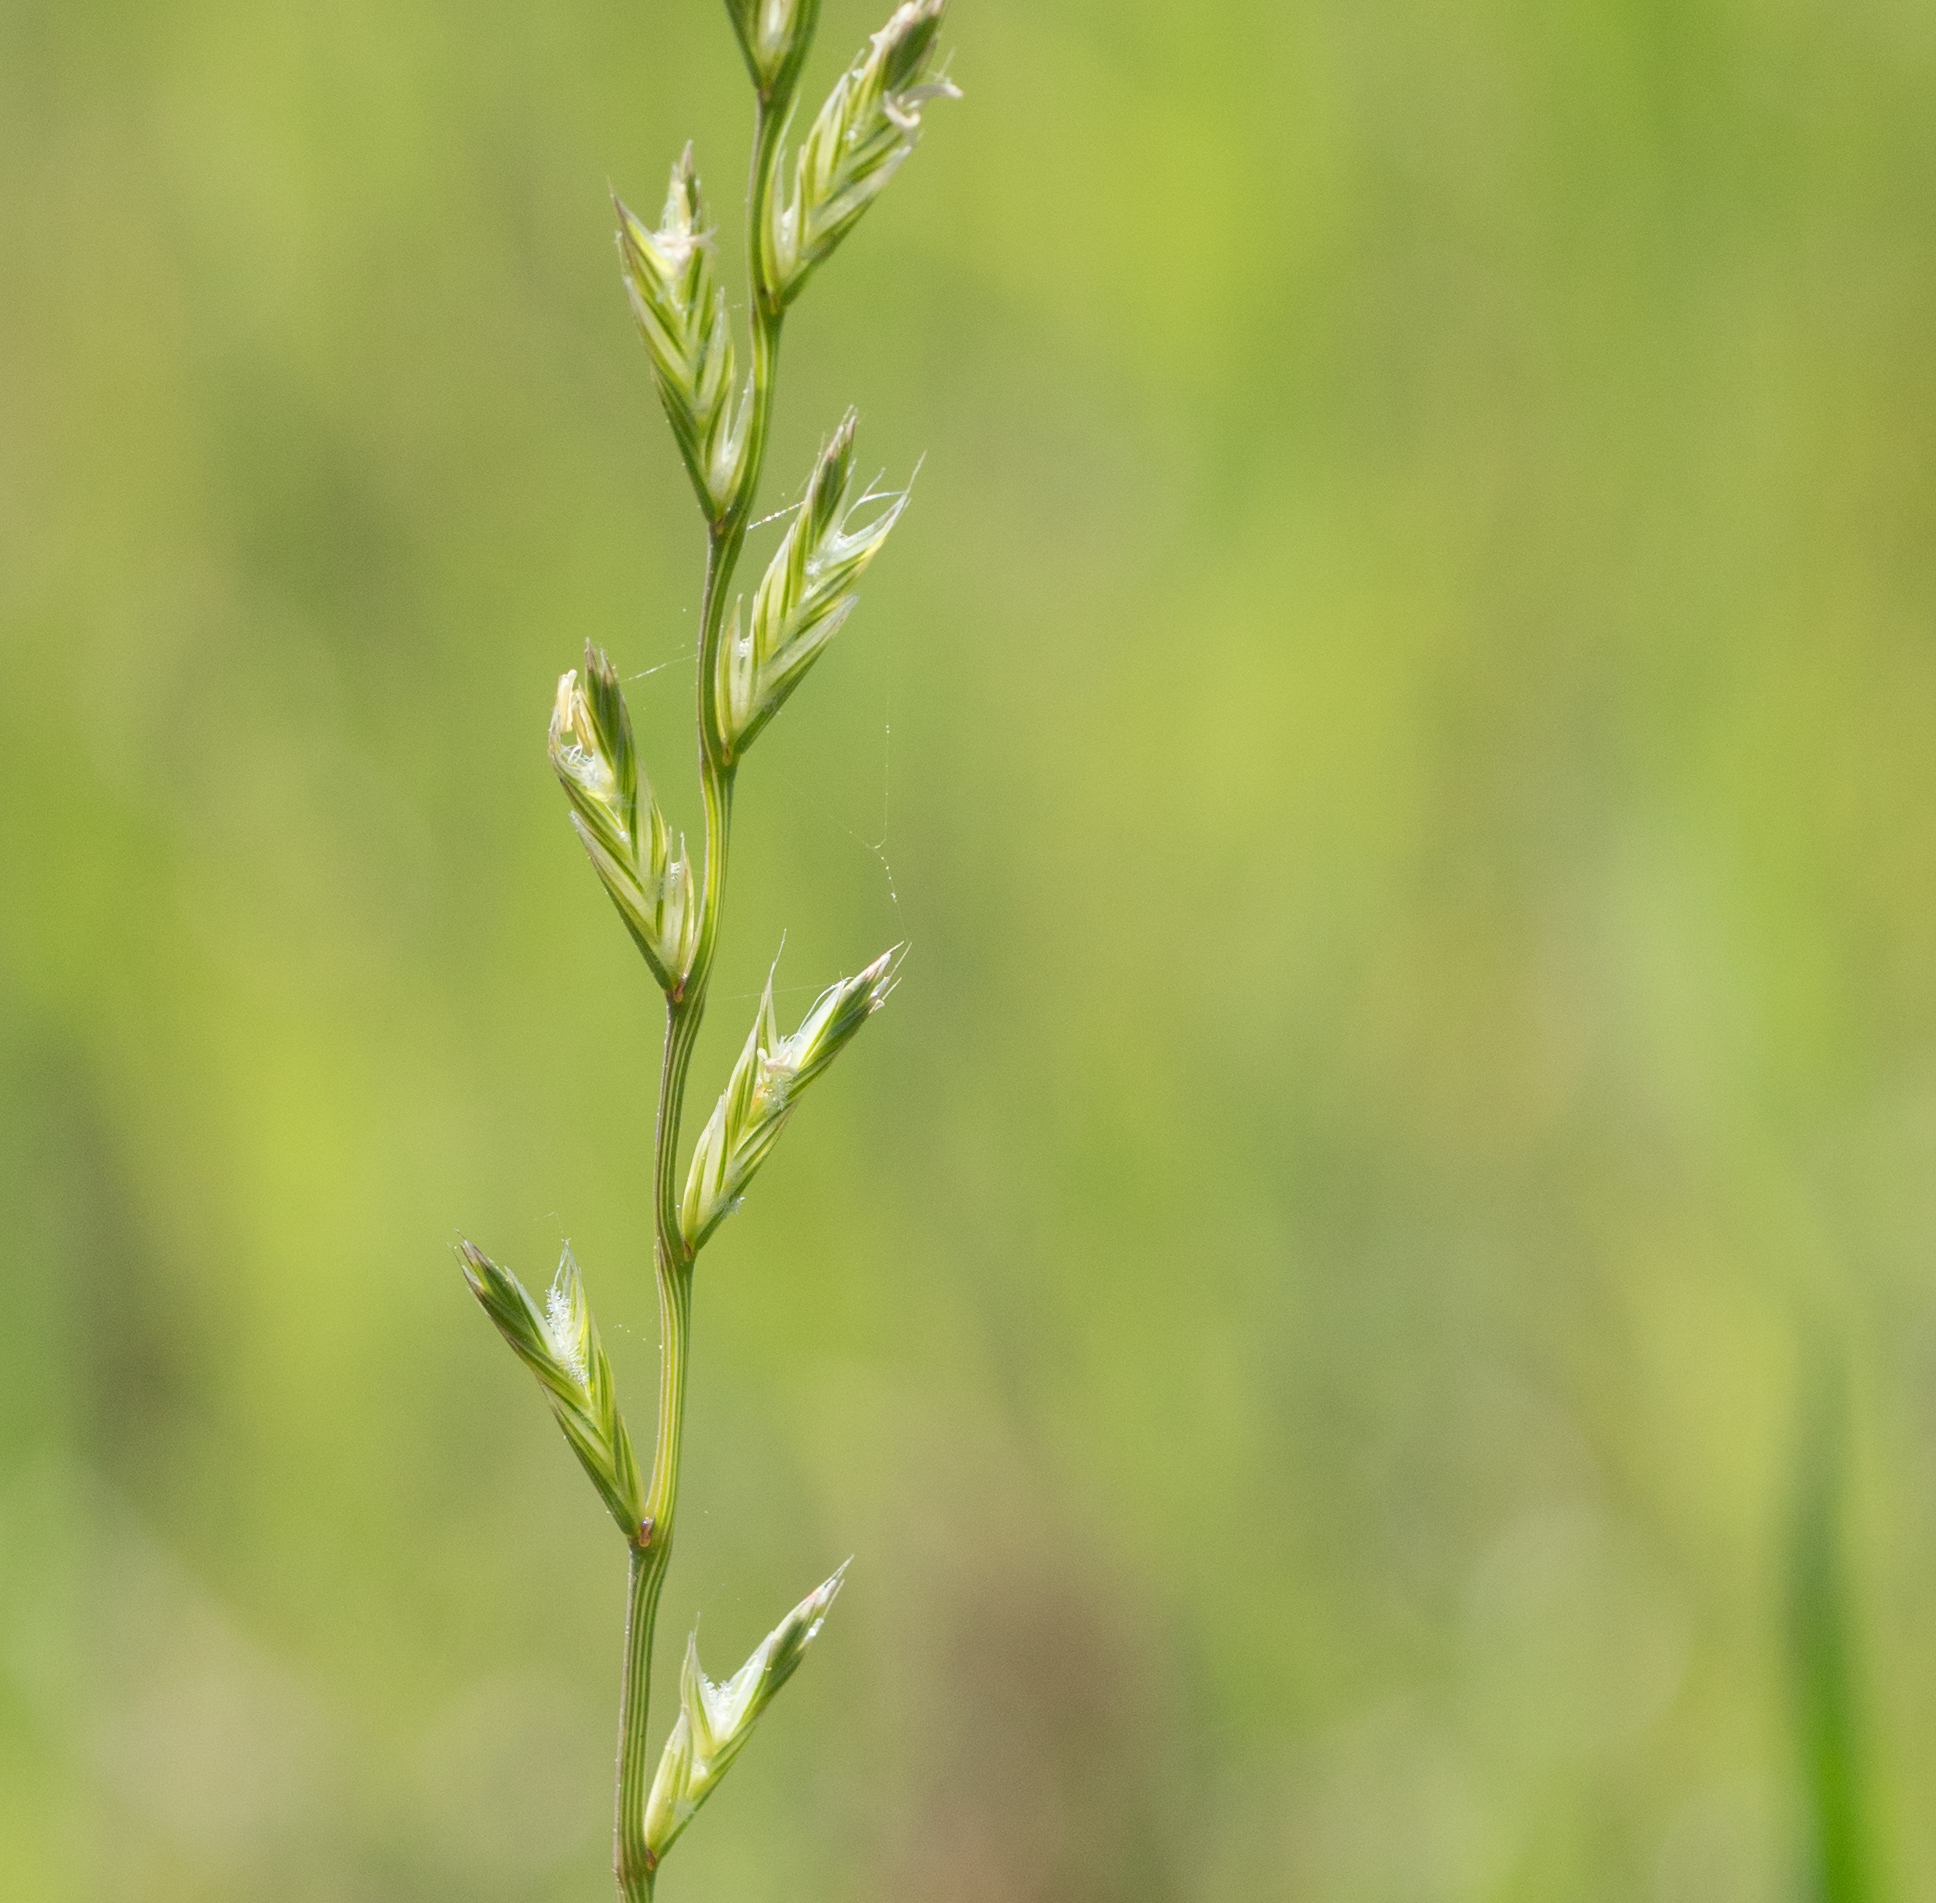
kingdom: Plantae
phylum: Tracheophyta
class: Liliopsida
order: Poales
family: Poaceae
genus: Lolium
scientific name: Lolium perenne
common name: Perennial ryegrass
